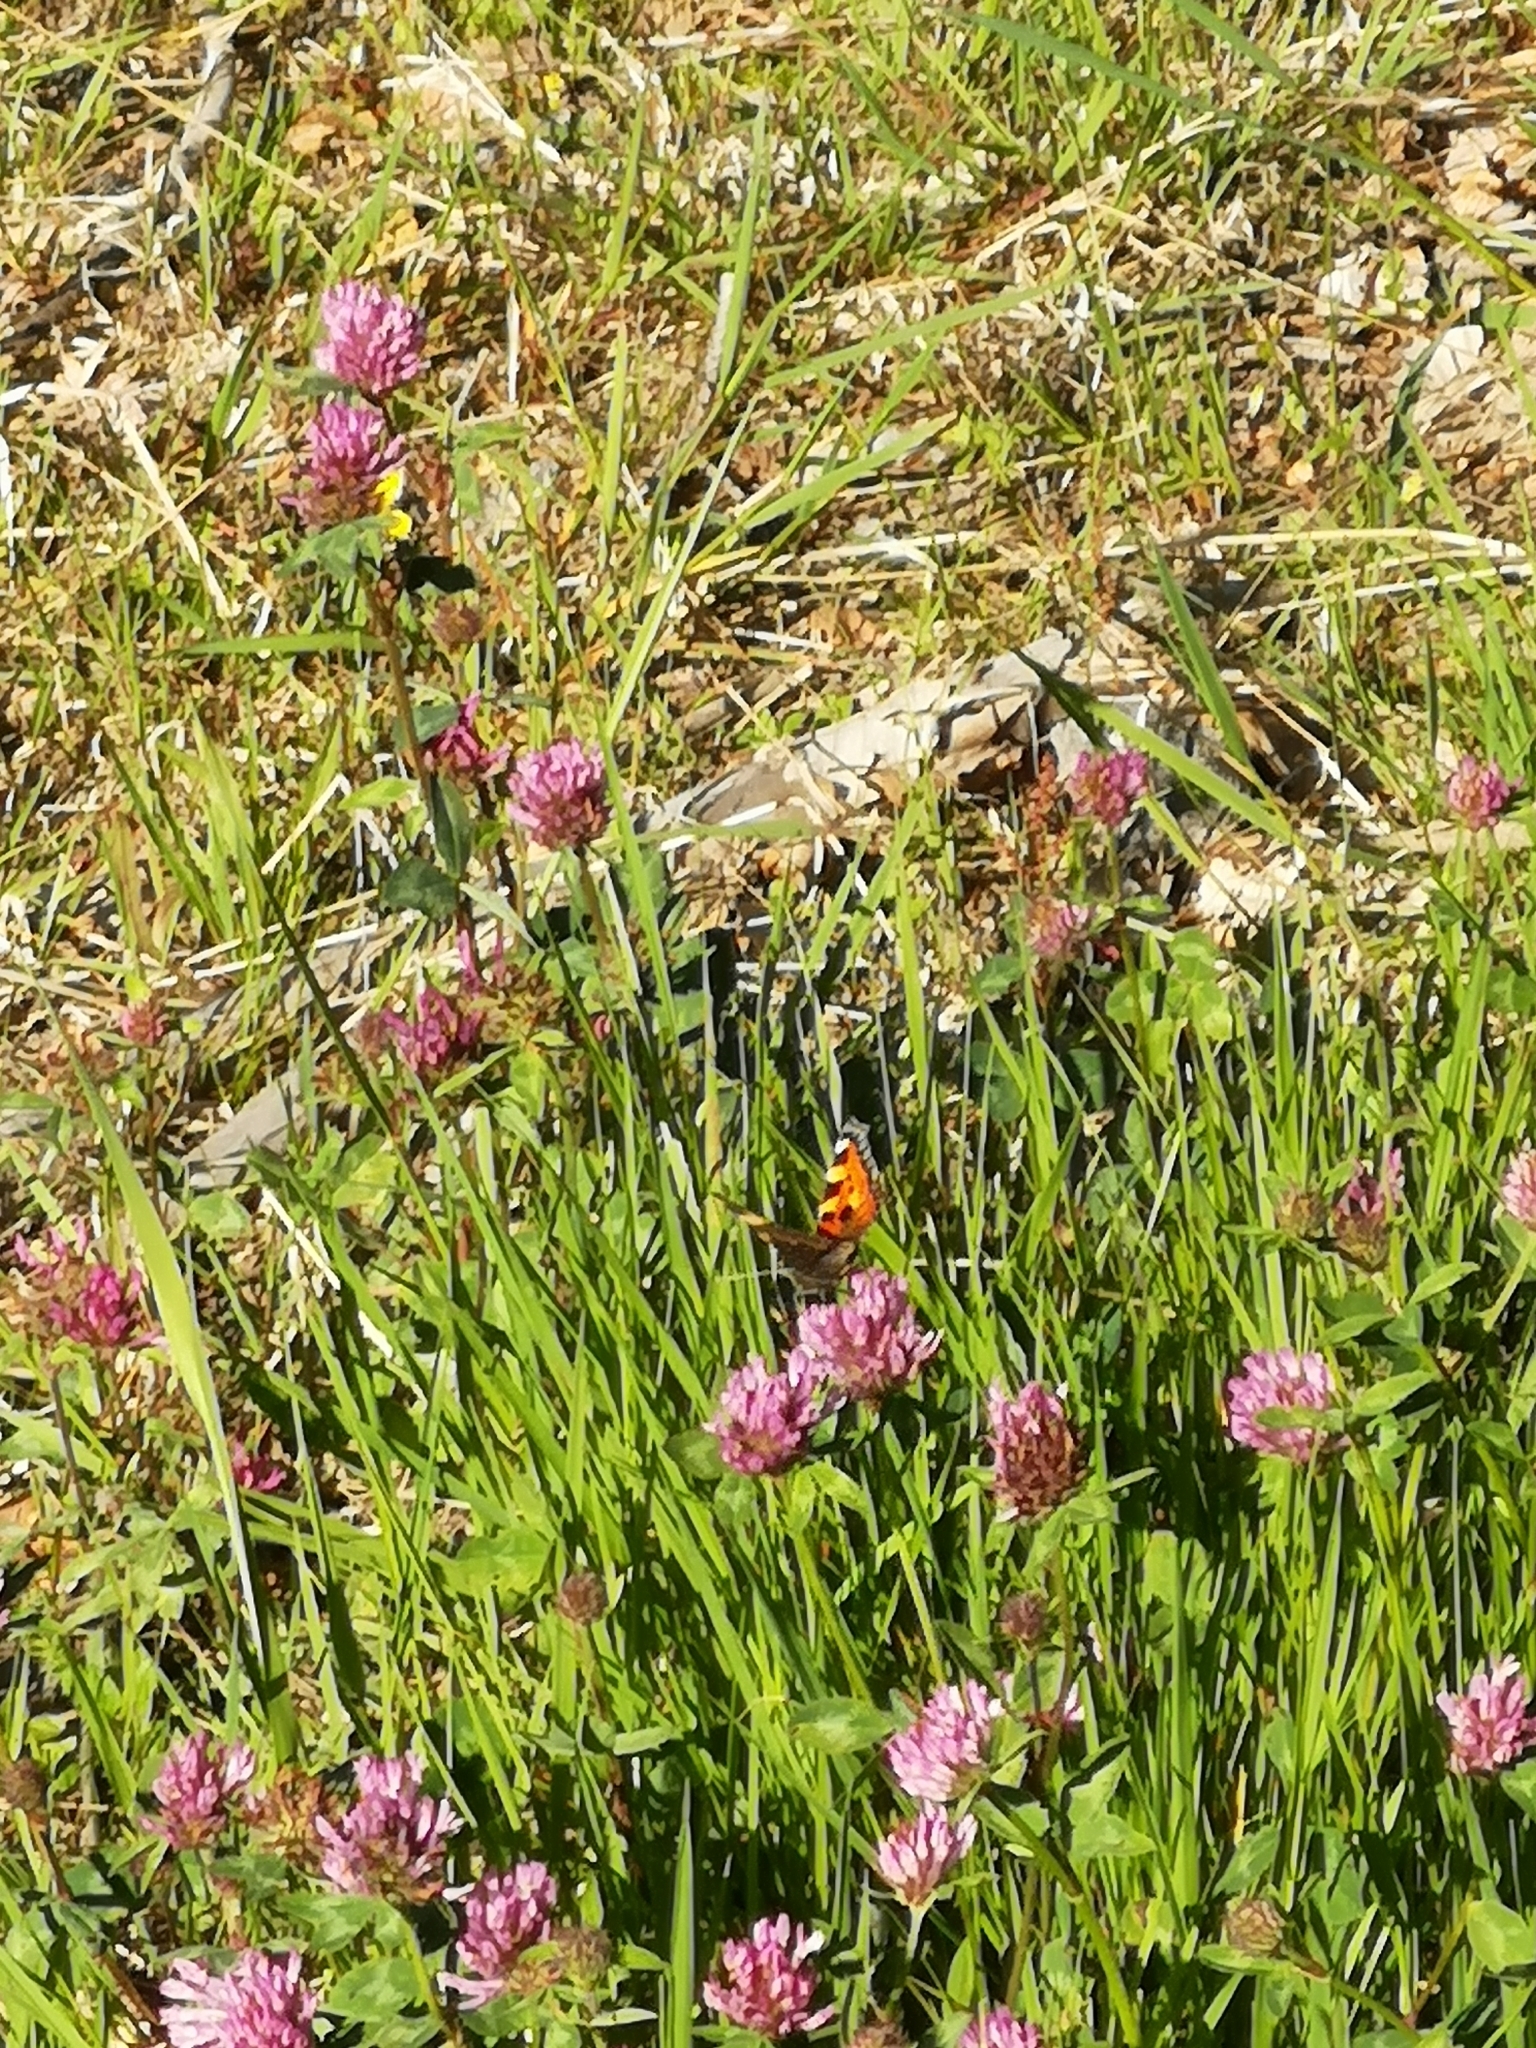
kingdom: Animalia
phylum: Arthropoda
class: Insecta
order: Lepidoptera
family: Nymphalidae
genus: Aglais
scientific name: Aglais urticae
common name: Small tortoiseshell
